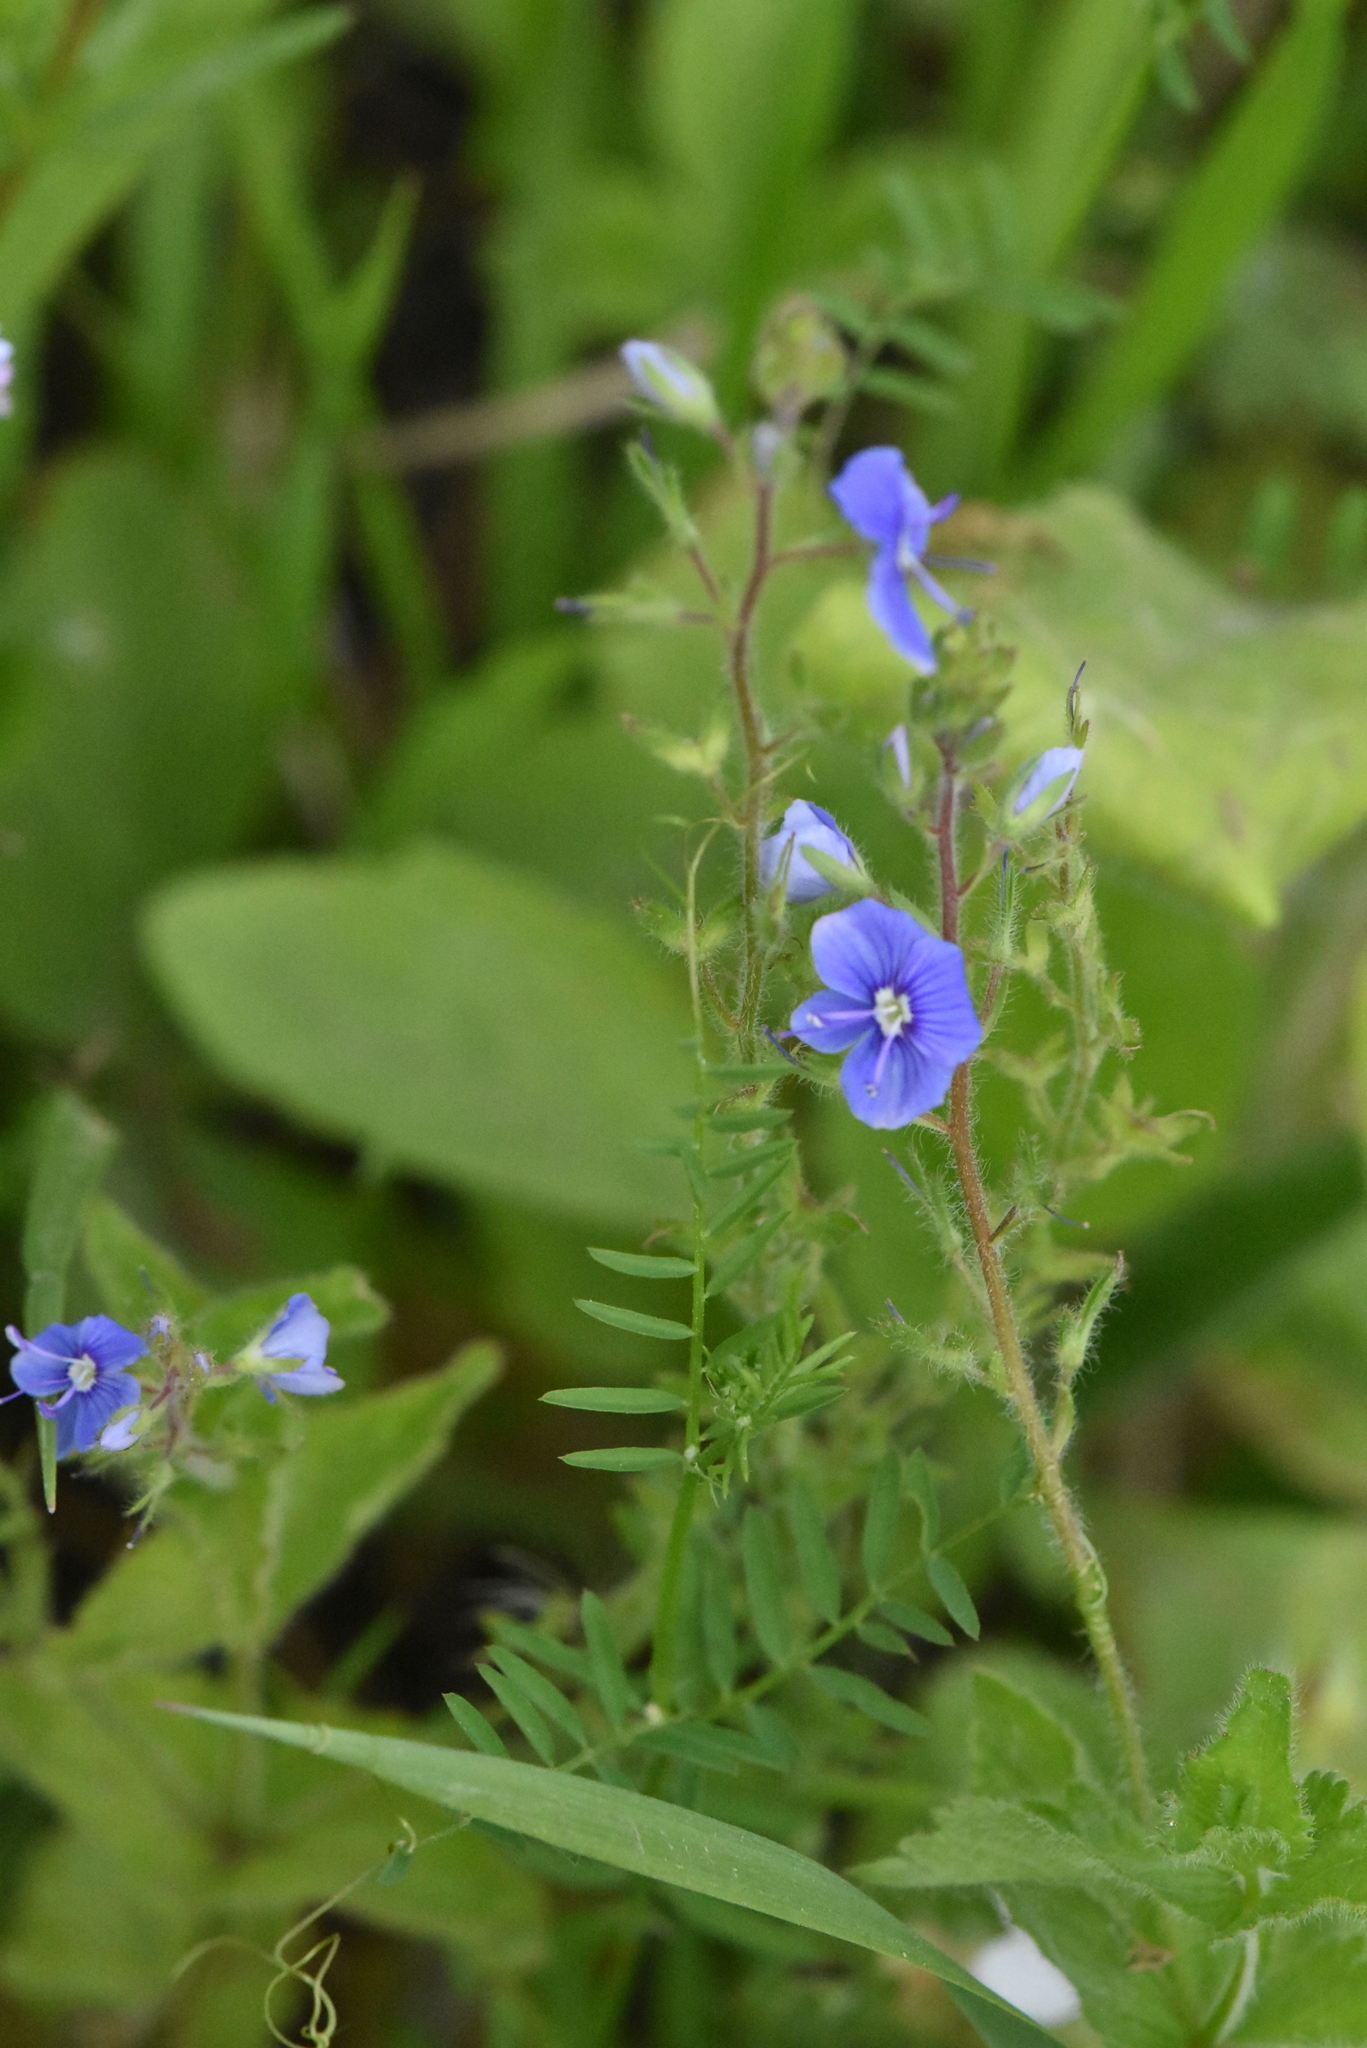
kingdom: Plantae
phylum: Tracheophyta
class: Magnoliopsida
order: Lamiales
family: Plantaginaceae
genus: Veronica
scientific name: Veronica chamaedrys
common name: Germander speedwell
